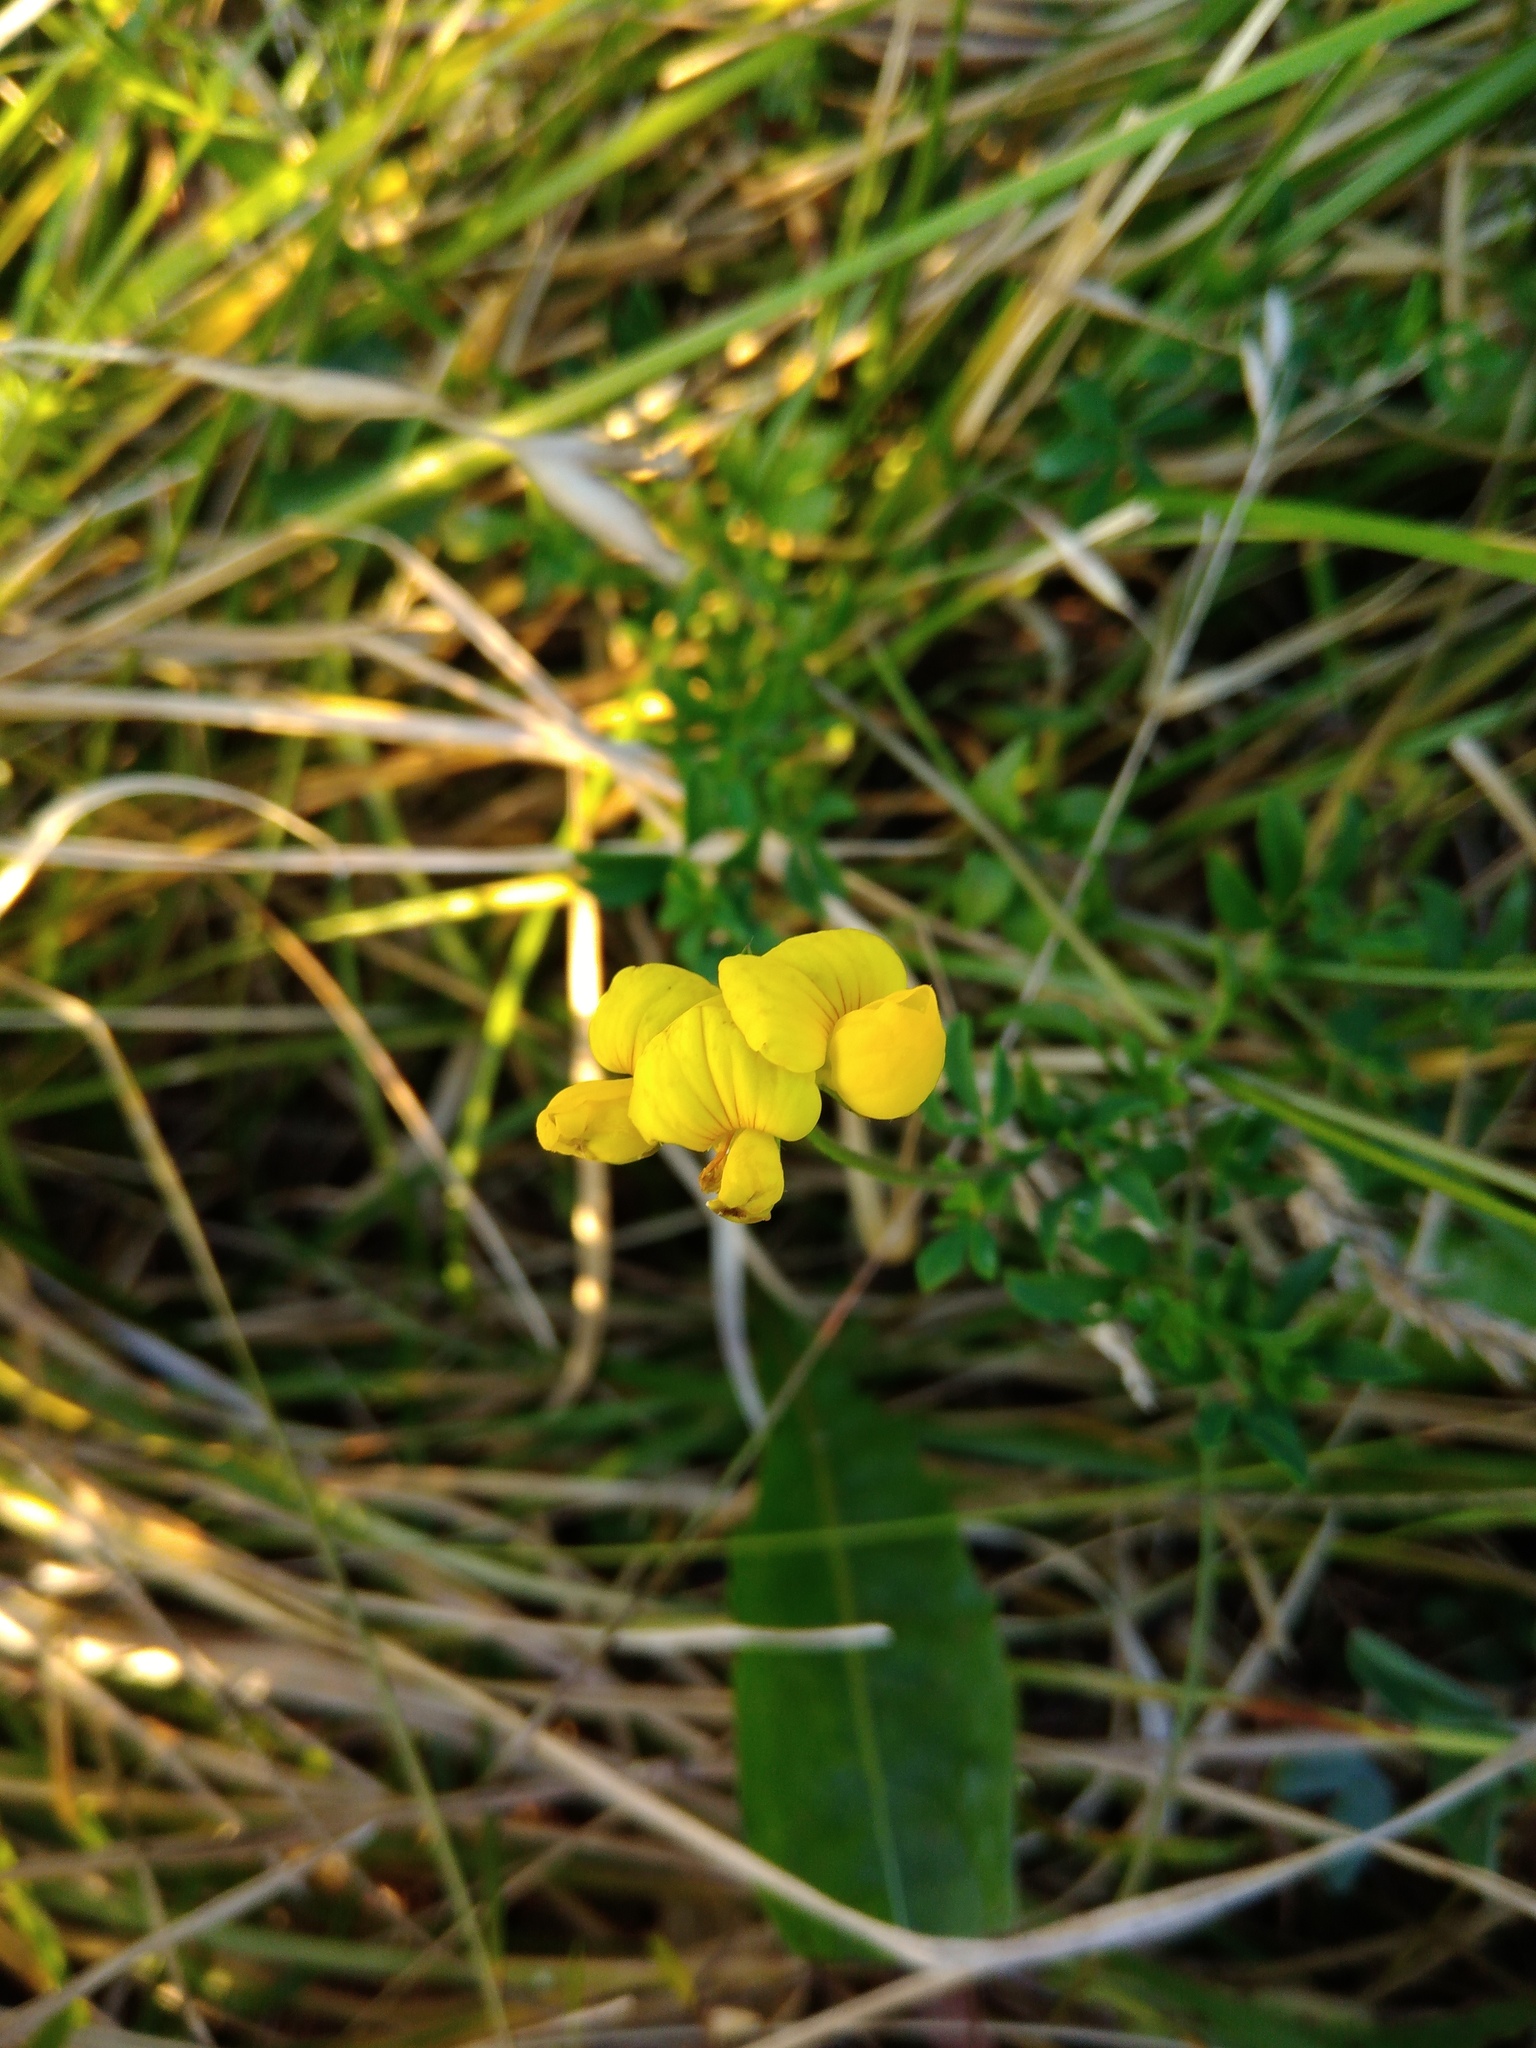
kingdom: Plantae
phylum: Tracheophyta
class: Magnoliopsida
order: Fabales
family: Fabaceae
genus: Lotus
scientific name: Lotus corniculatus
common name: Common bird's-foot-trefoil
